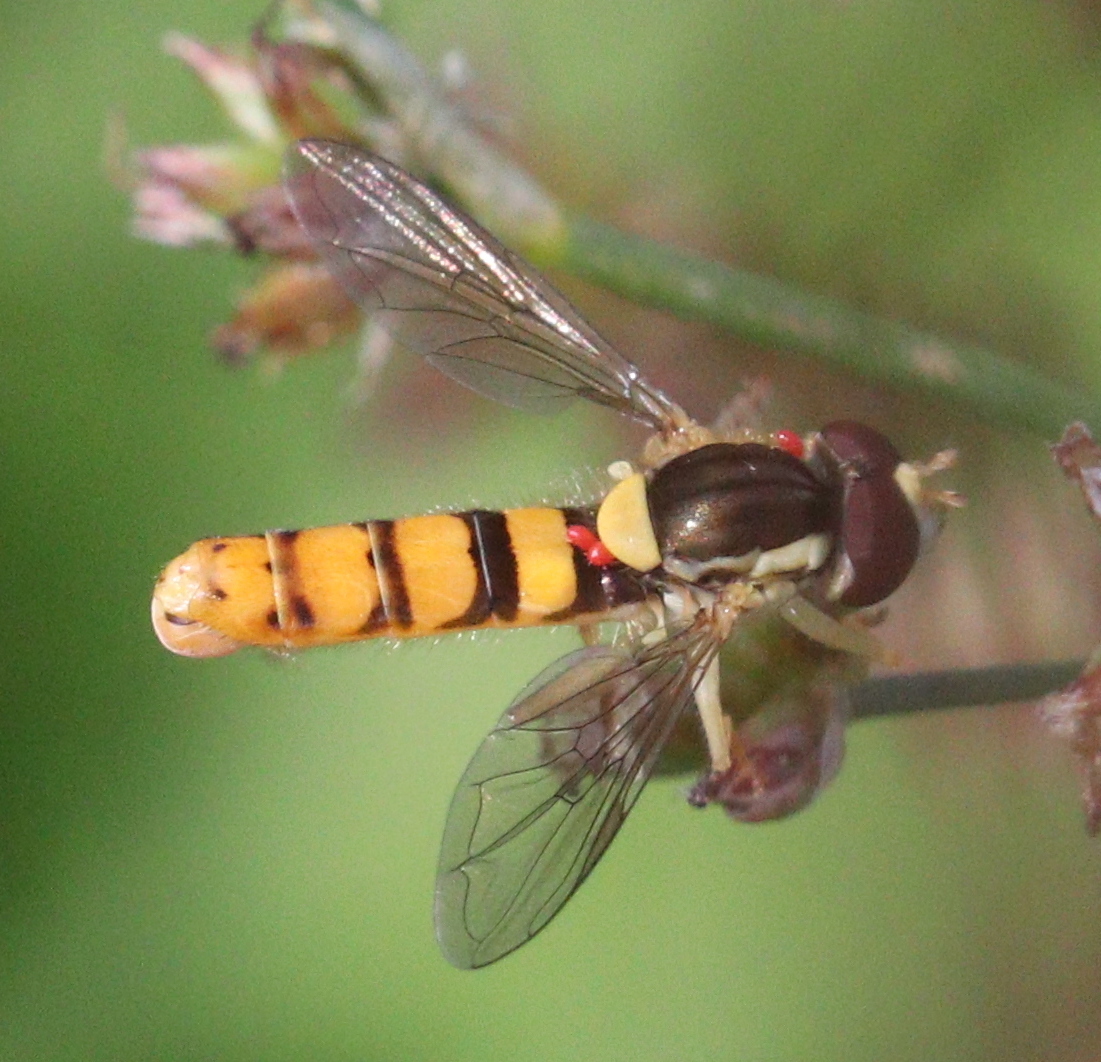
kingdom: Animalia
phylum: Arthropoda
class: Insecta
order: Diptera
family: Syrphidae
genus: Sphaerophoria
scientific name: Sphaerophoria
